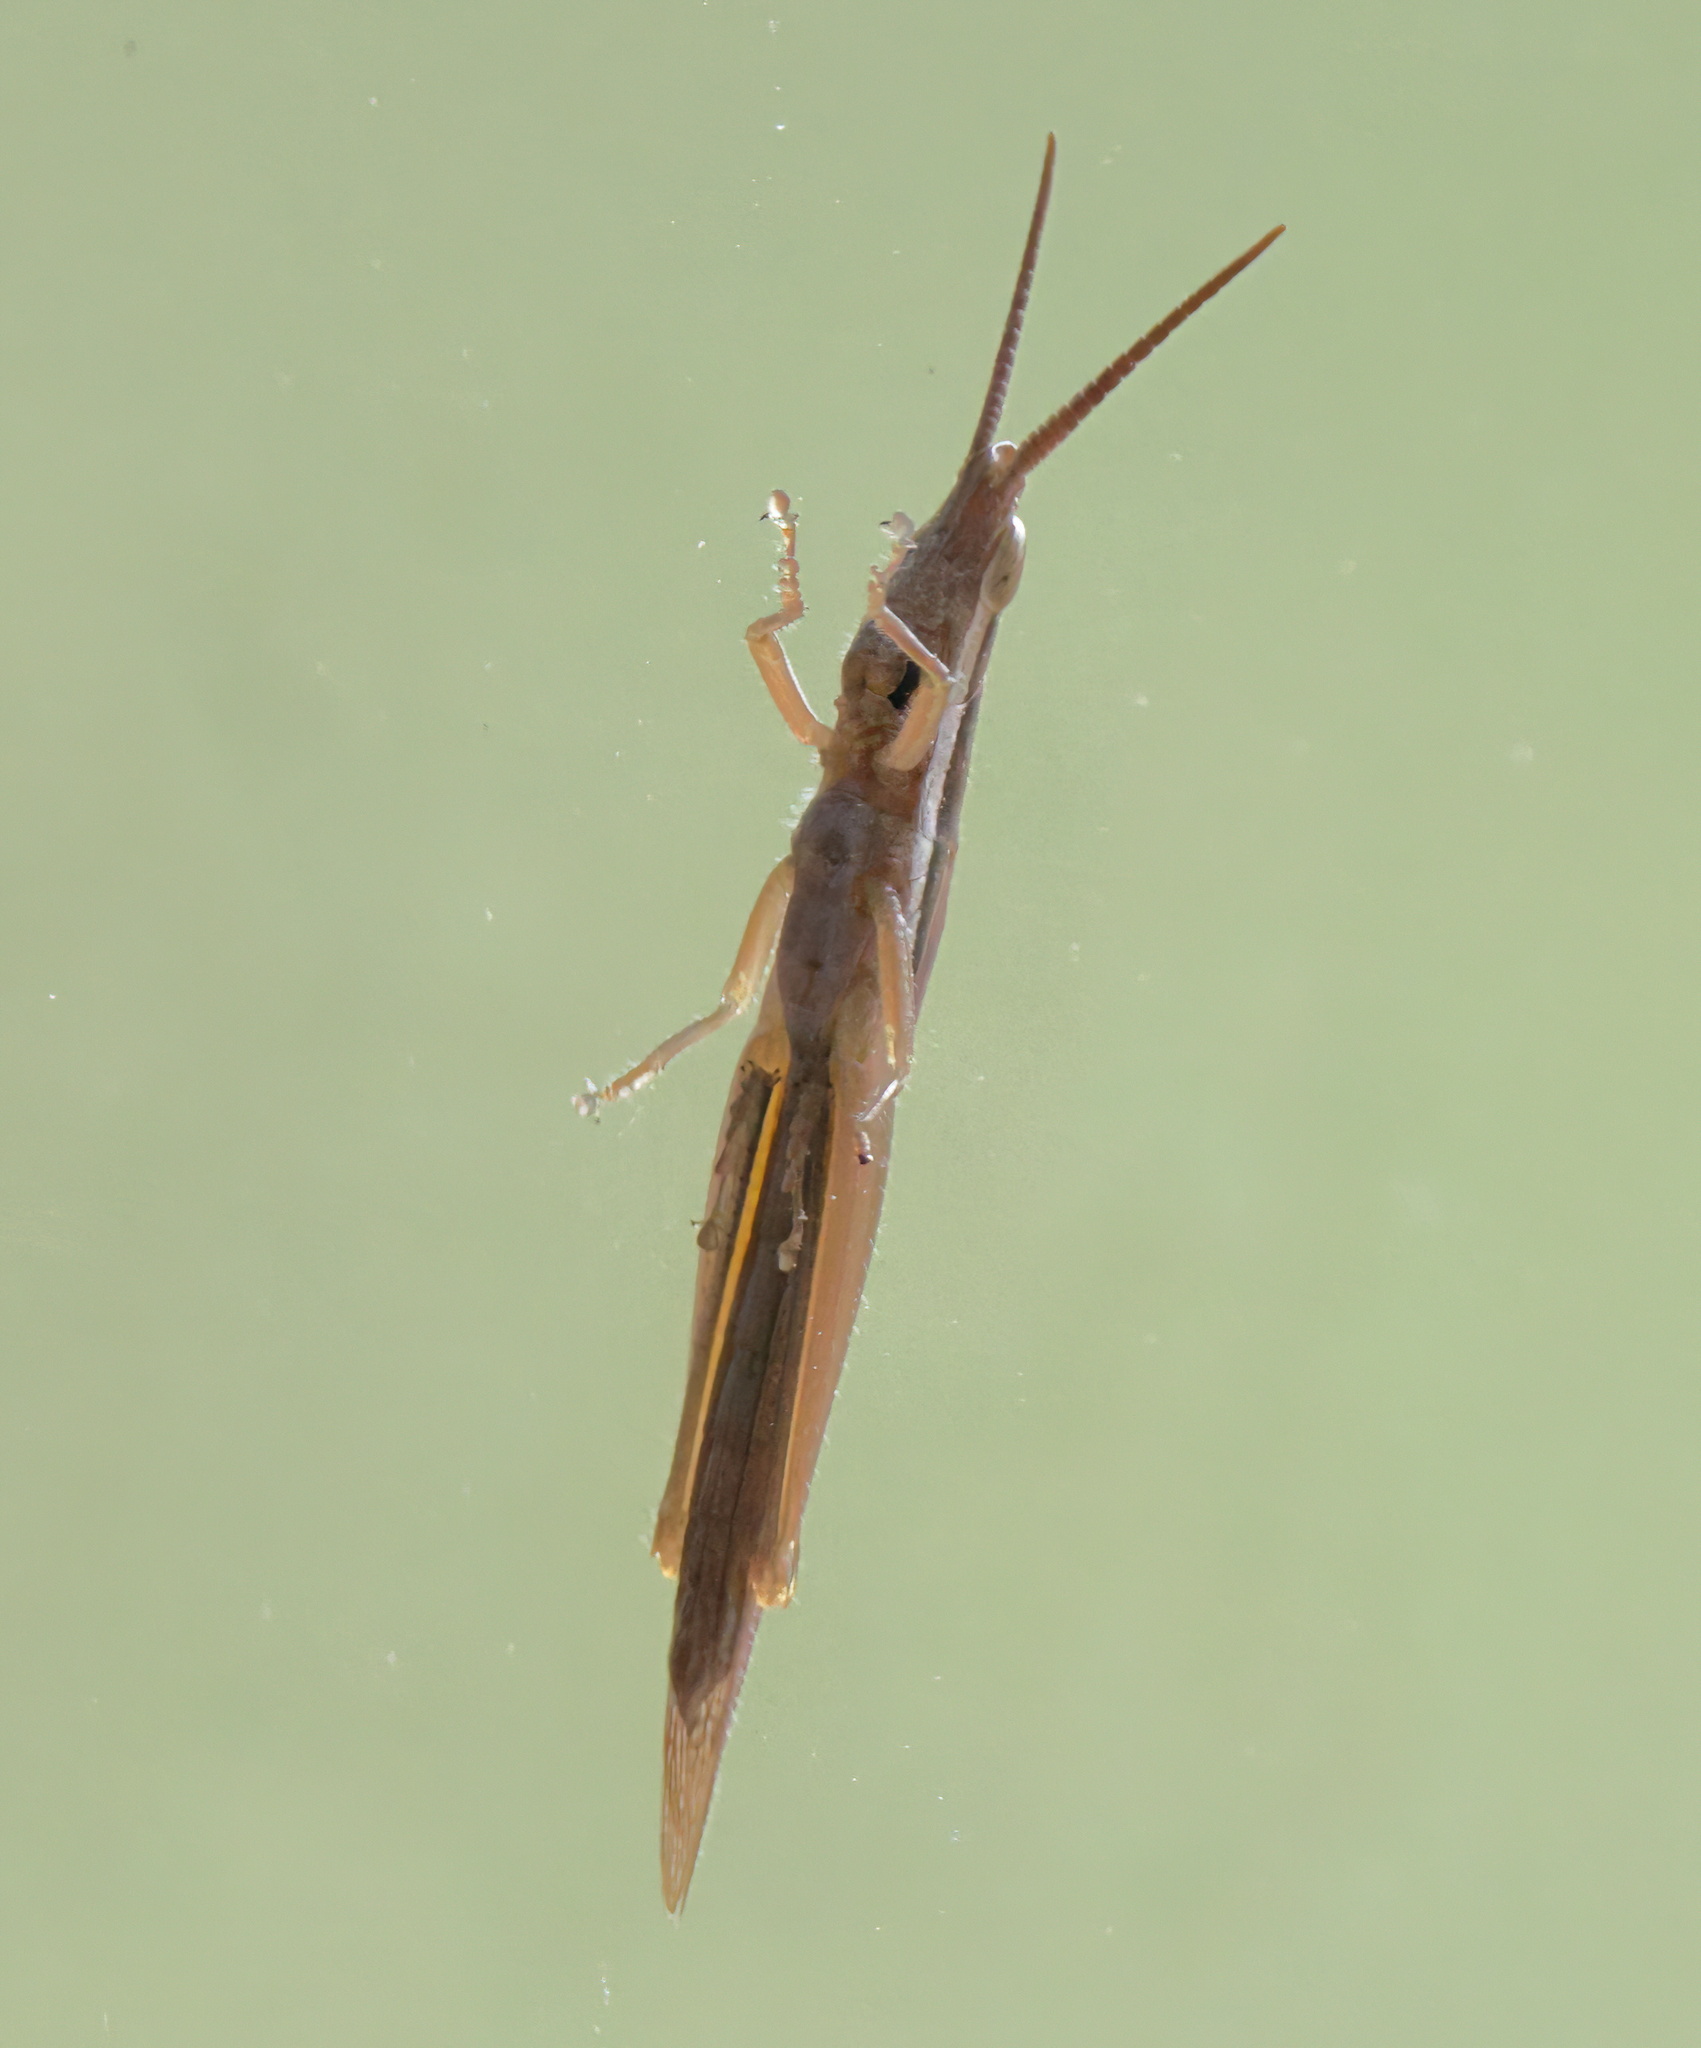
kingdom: Animalia
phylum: Arthropoda
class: Insecta
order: Orthoptera
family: Acrididae
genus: Leptysma
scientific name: Leptysma marginicollis
